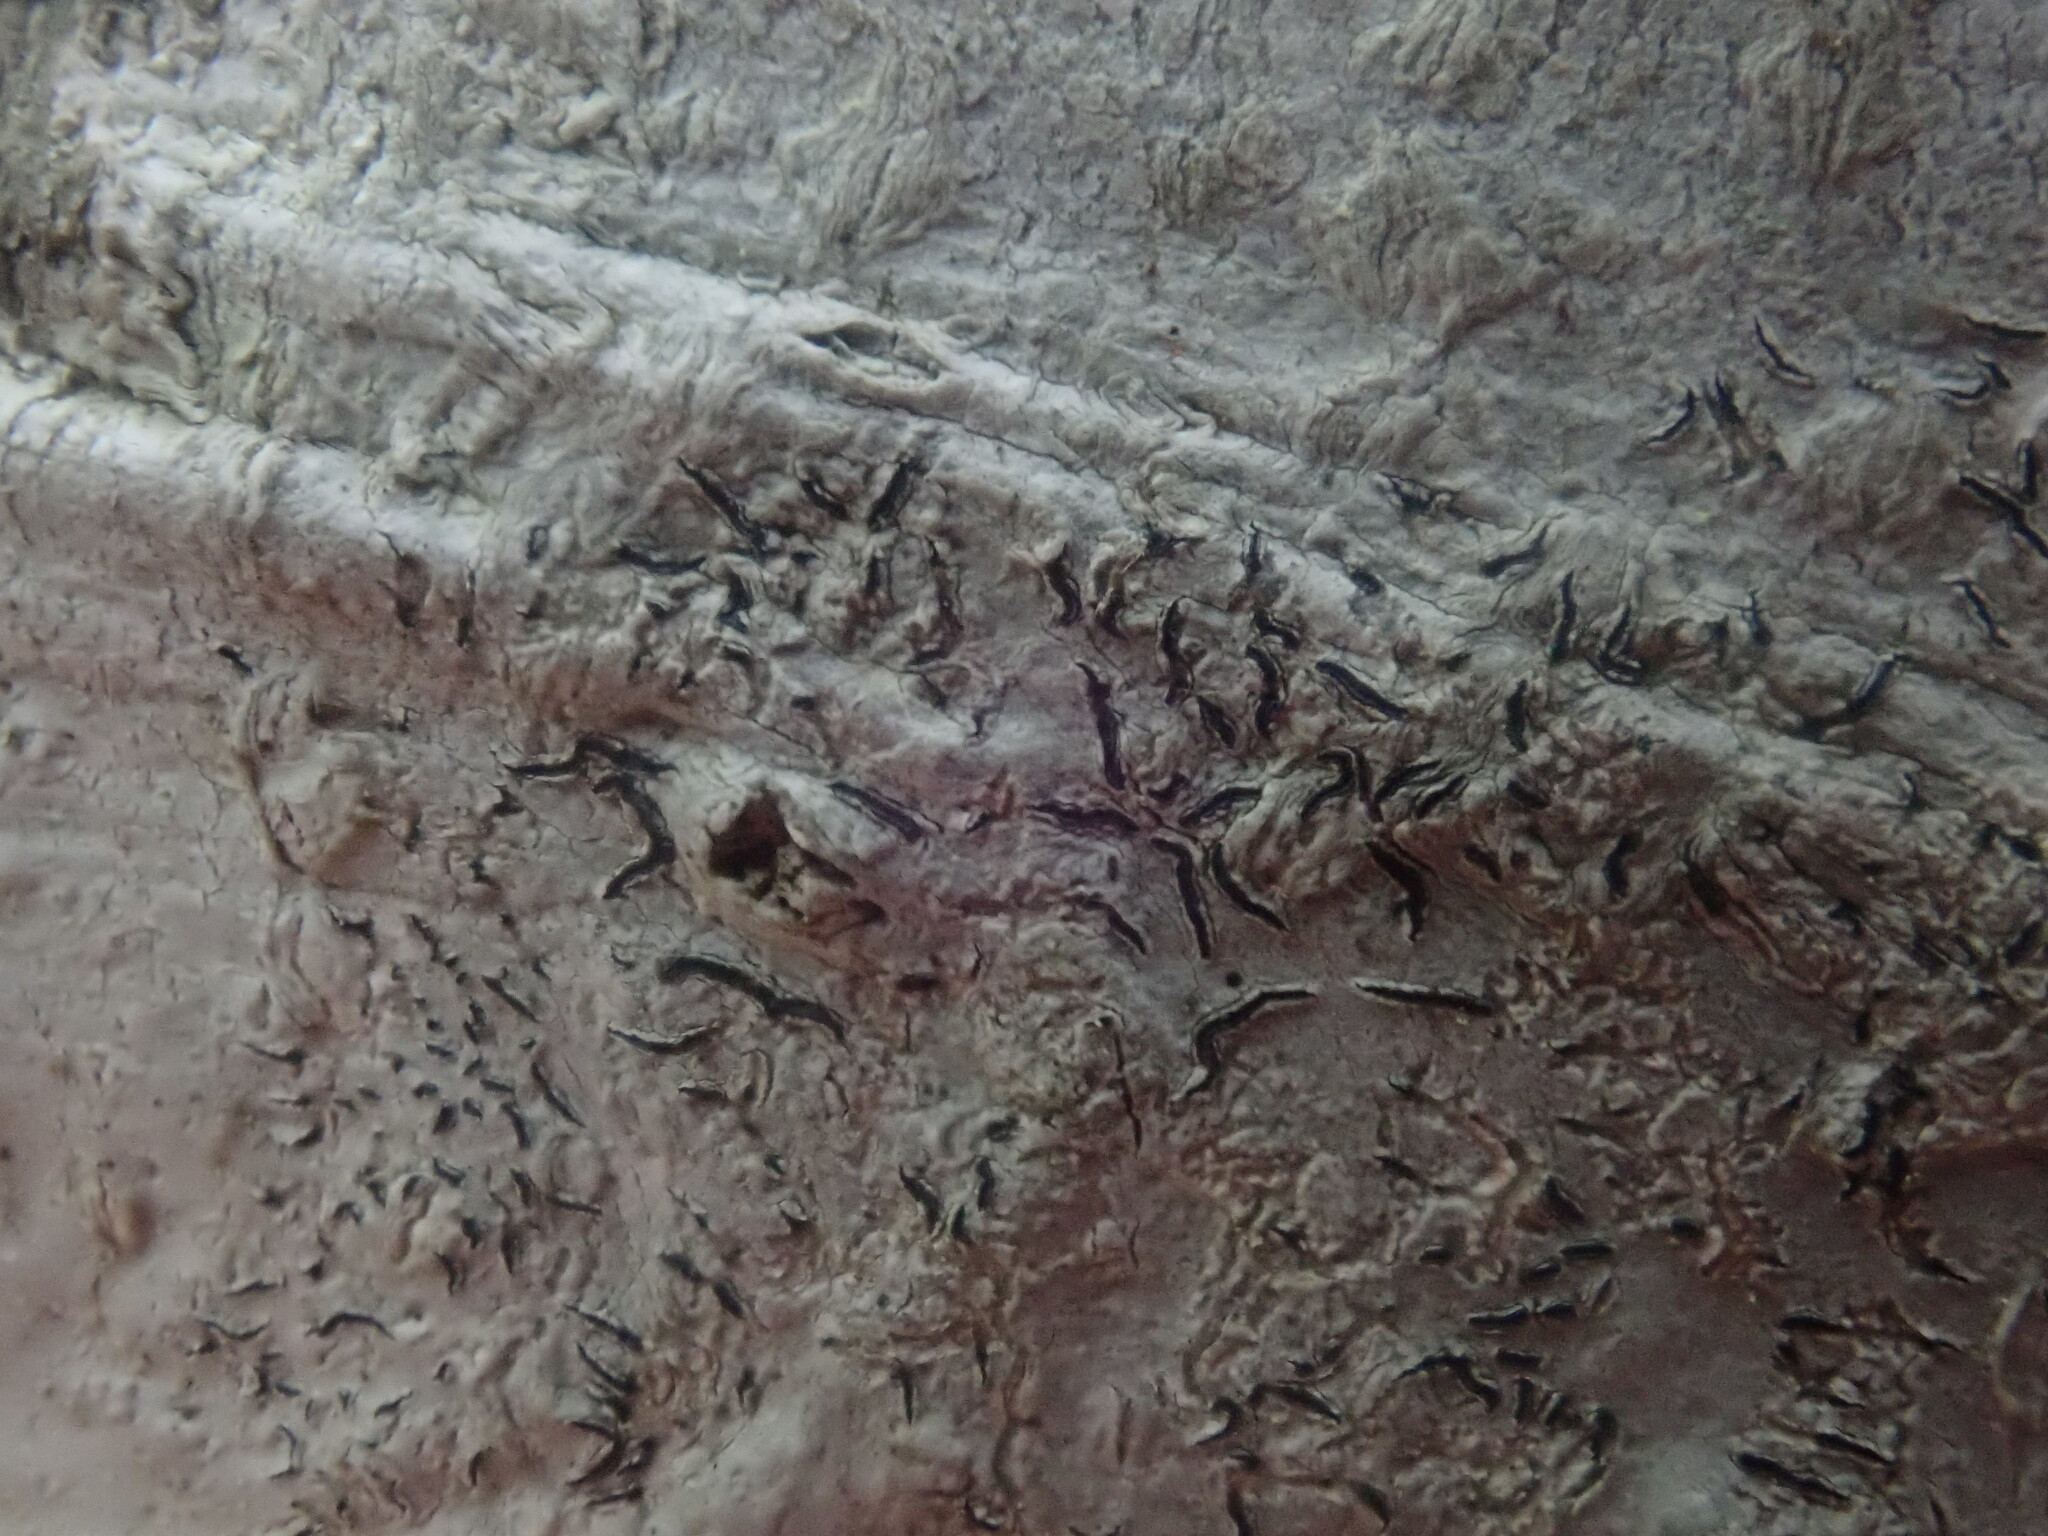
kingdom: Fungi
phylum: Ascomycota
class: Lecanoromycetes
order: Ostropales
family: Graphidaceae
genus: Graphis
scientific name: Graphis scripta
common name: Script lichen
